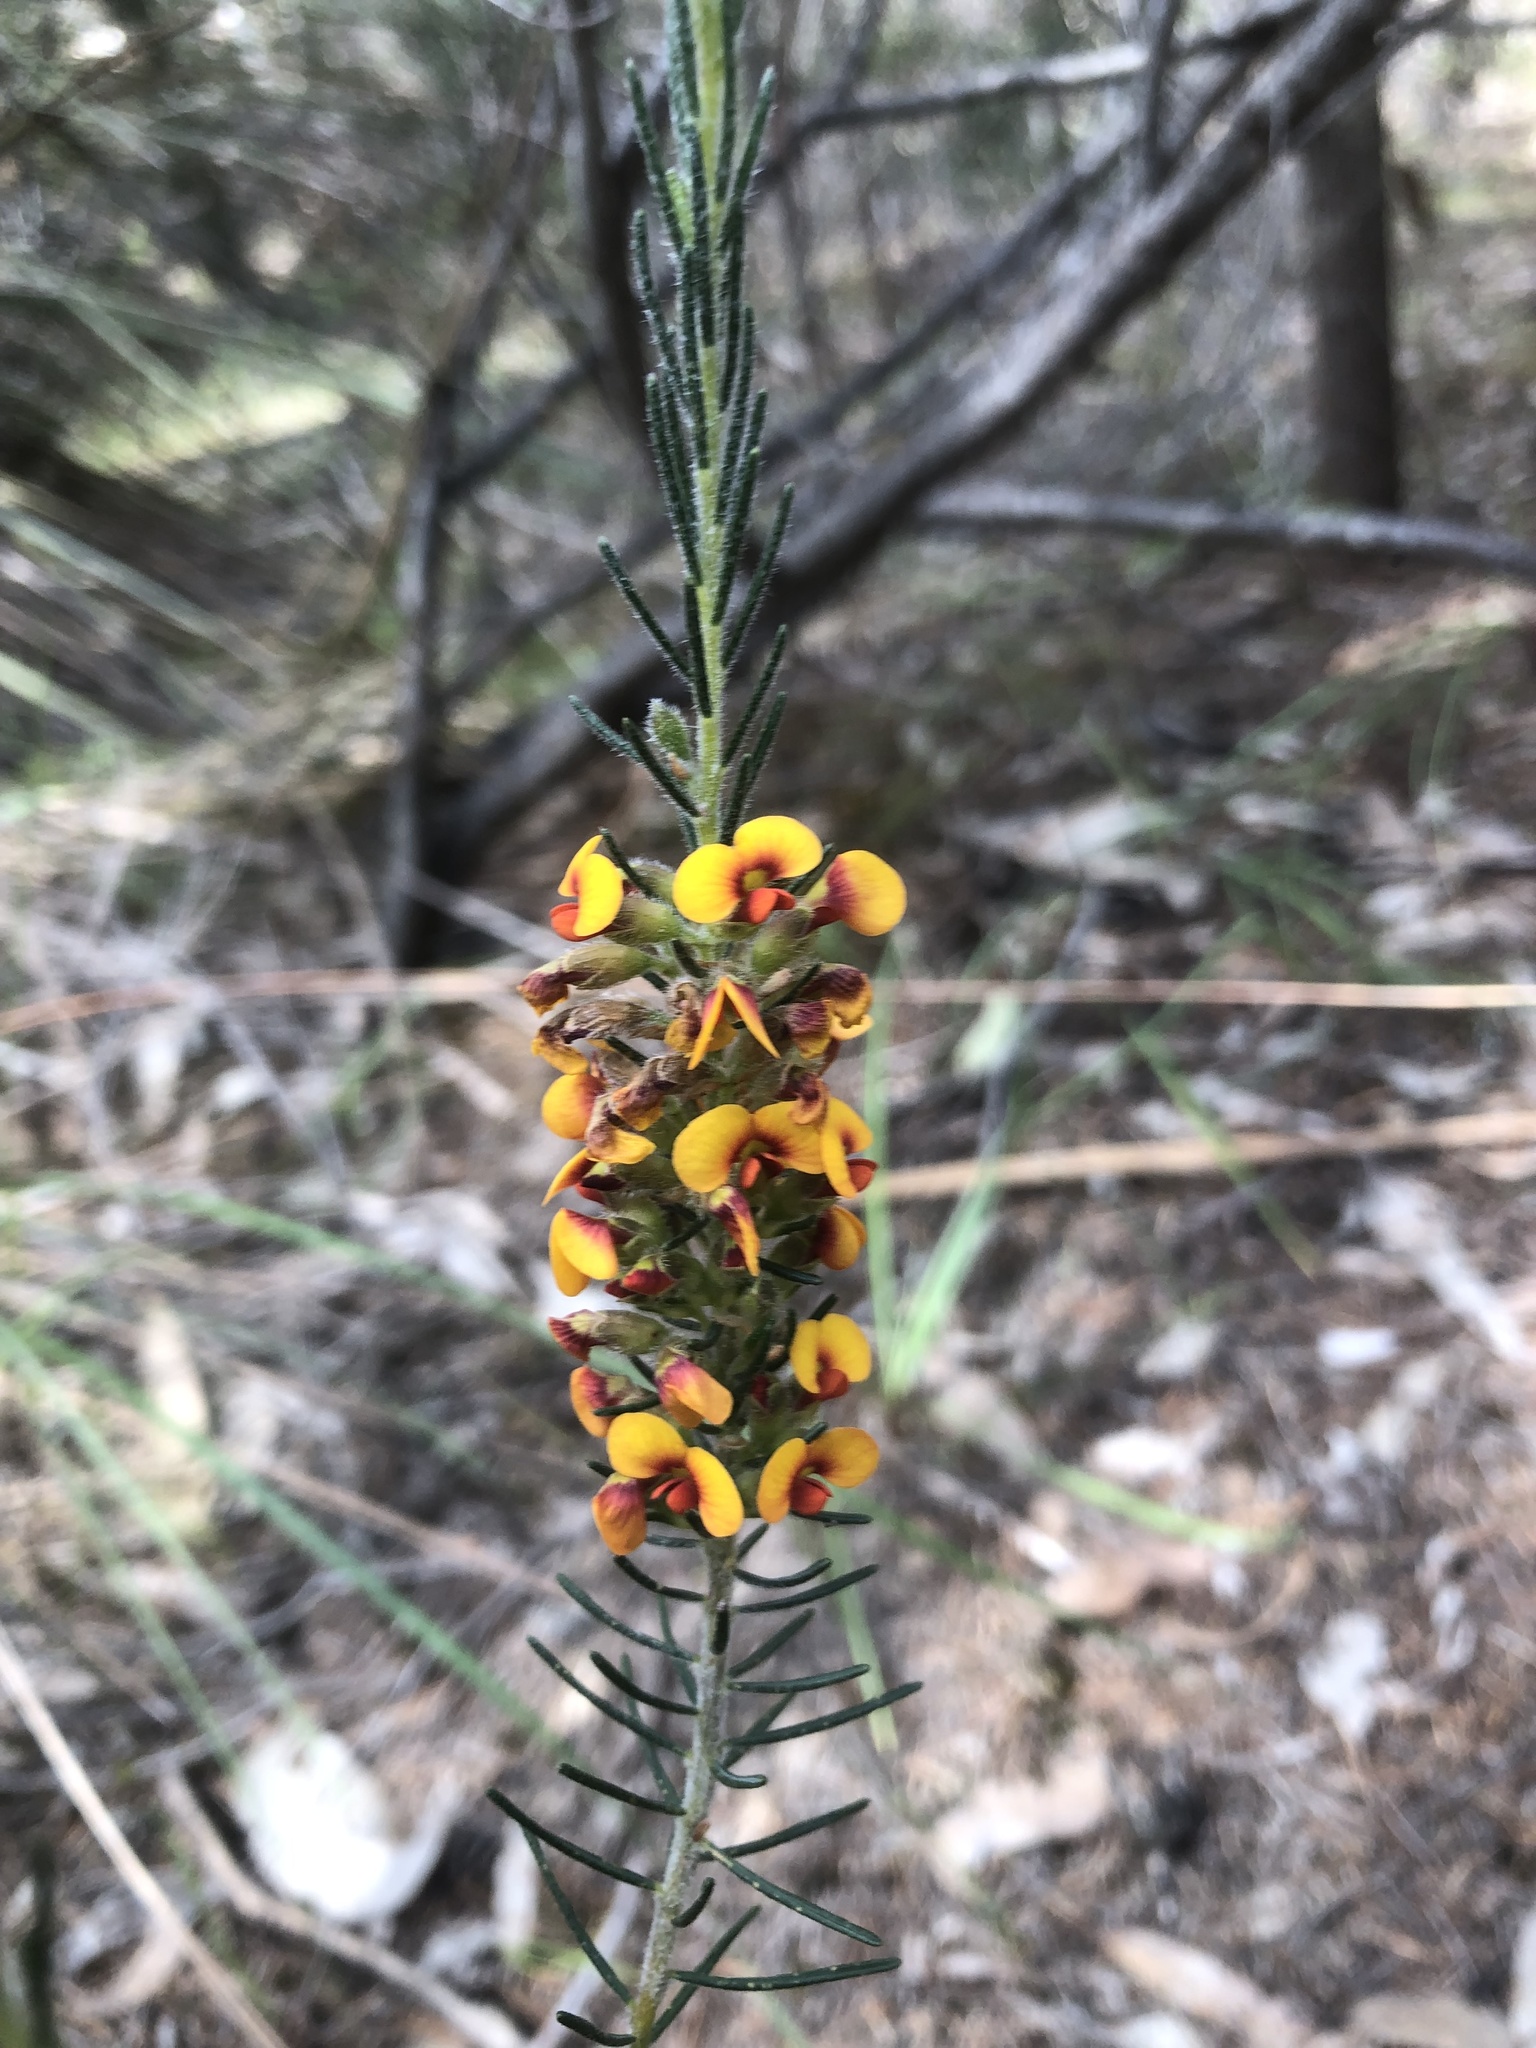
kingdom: Plantae
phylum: Tracheophyta
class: Magnoliopsida
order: Fabales
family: Fabaceae
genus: Dillwynia
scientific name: Dillwynia sericea
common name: Showy parrot-pea
